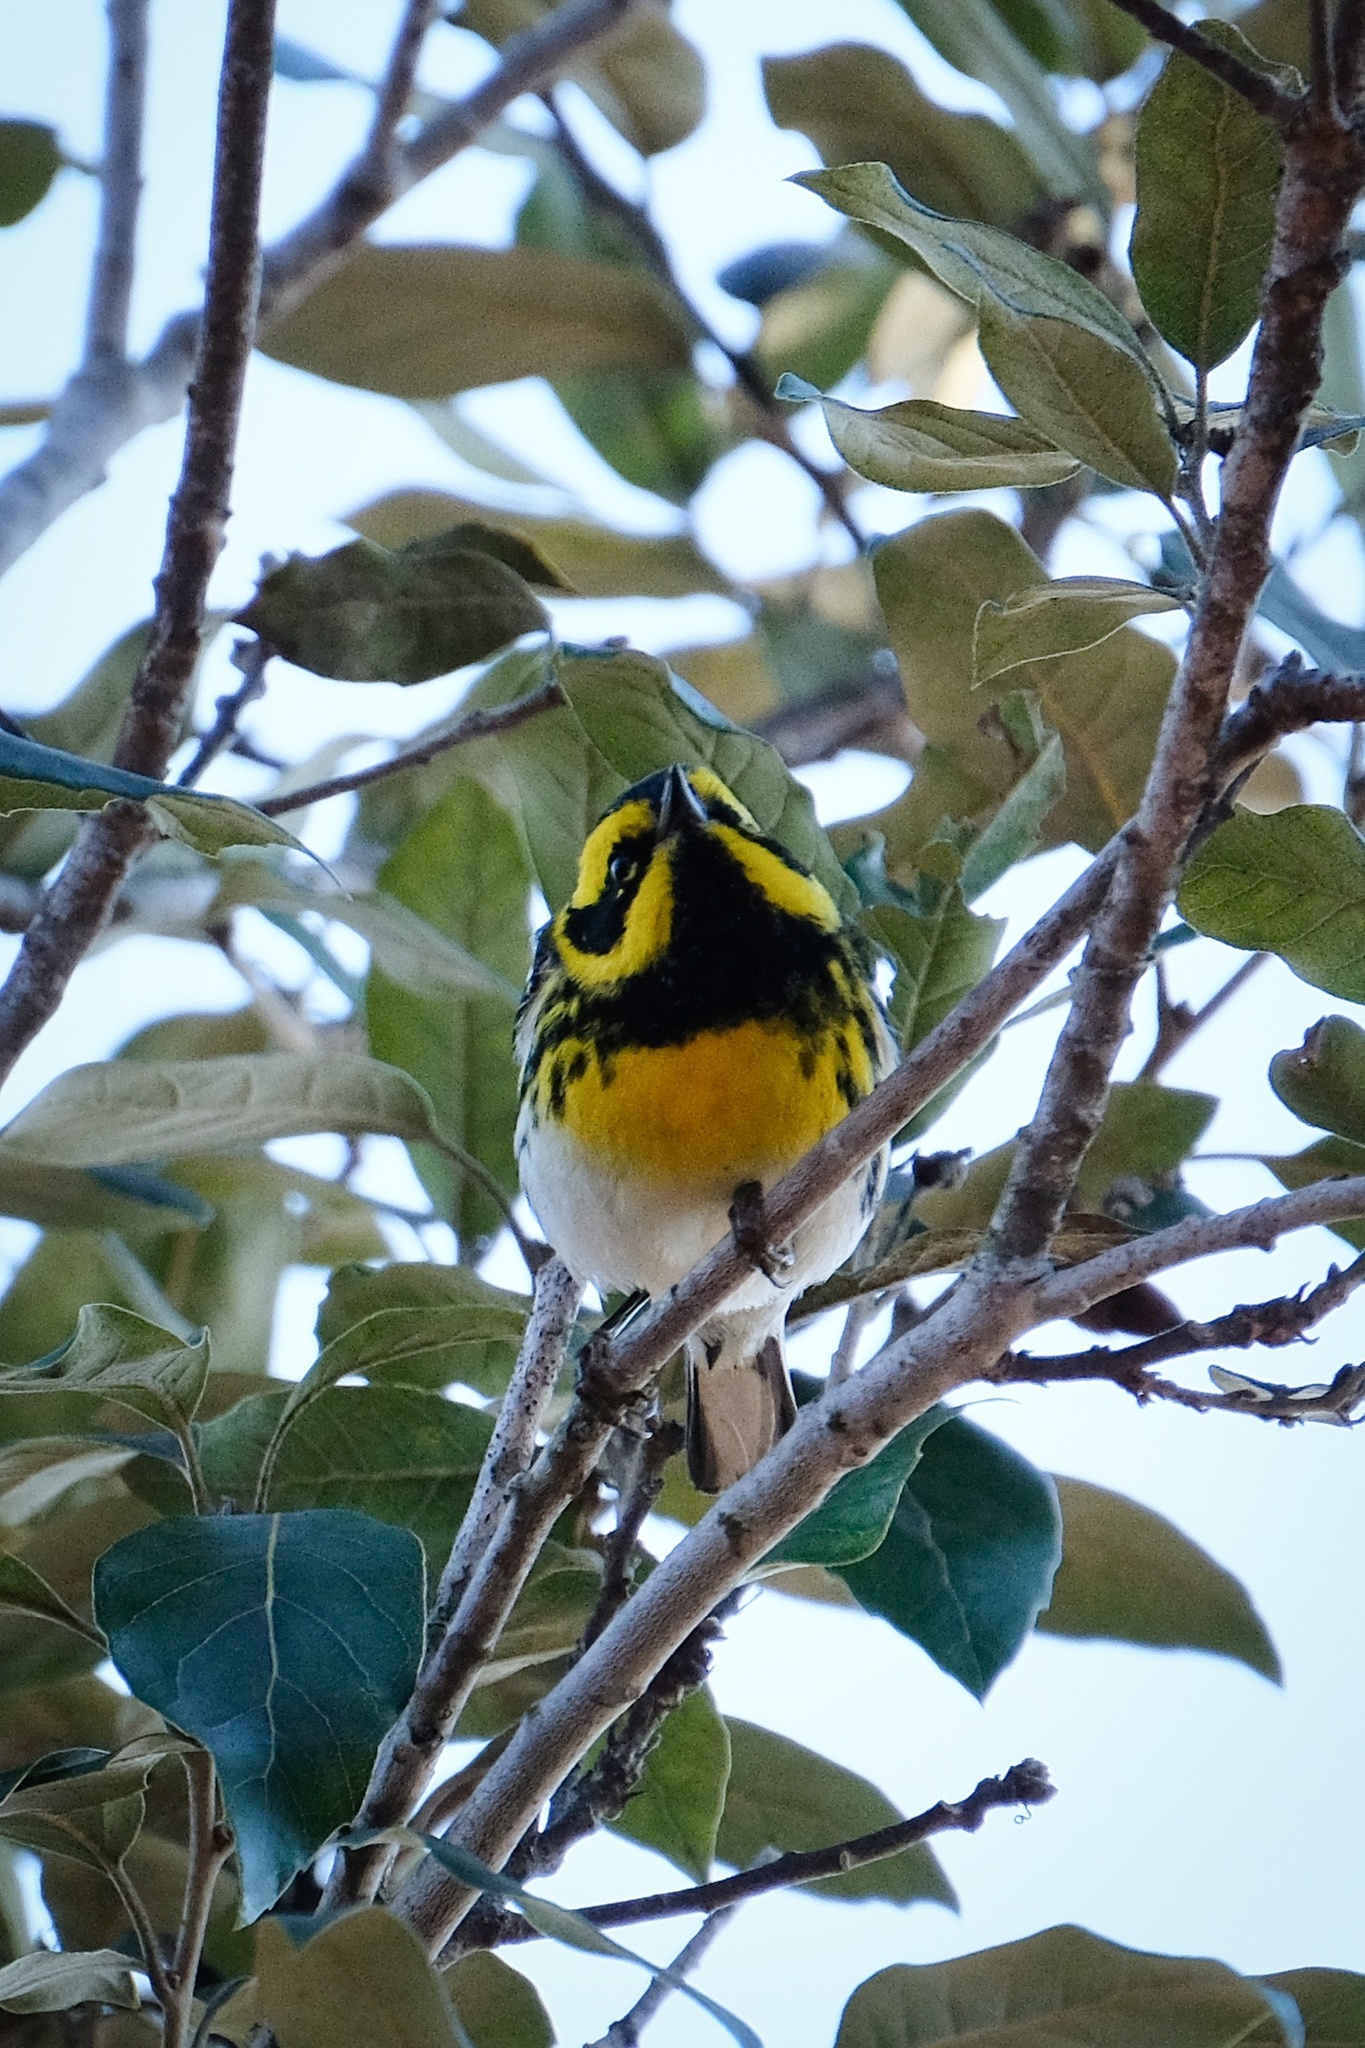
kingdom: Animalia
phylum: Chordata
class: Aves
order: Passeriformes
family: Parulidae
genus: Setophaga
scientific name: Setophaga townsendi
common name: Townsend's warbler
